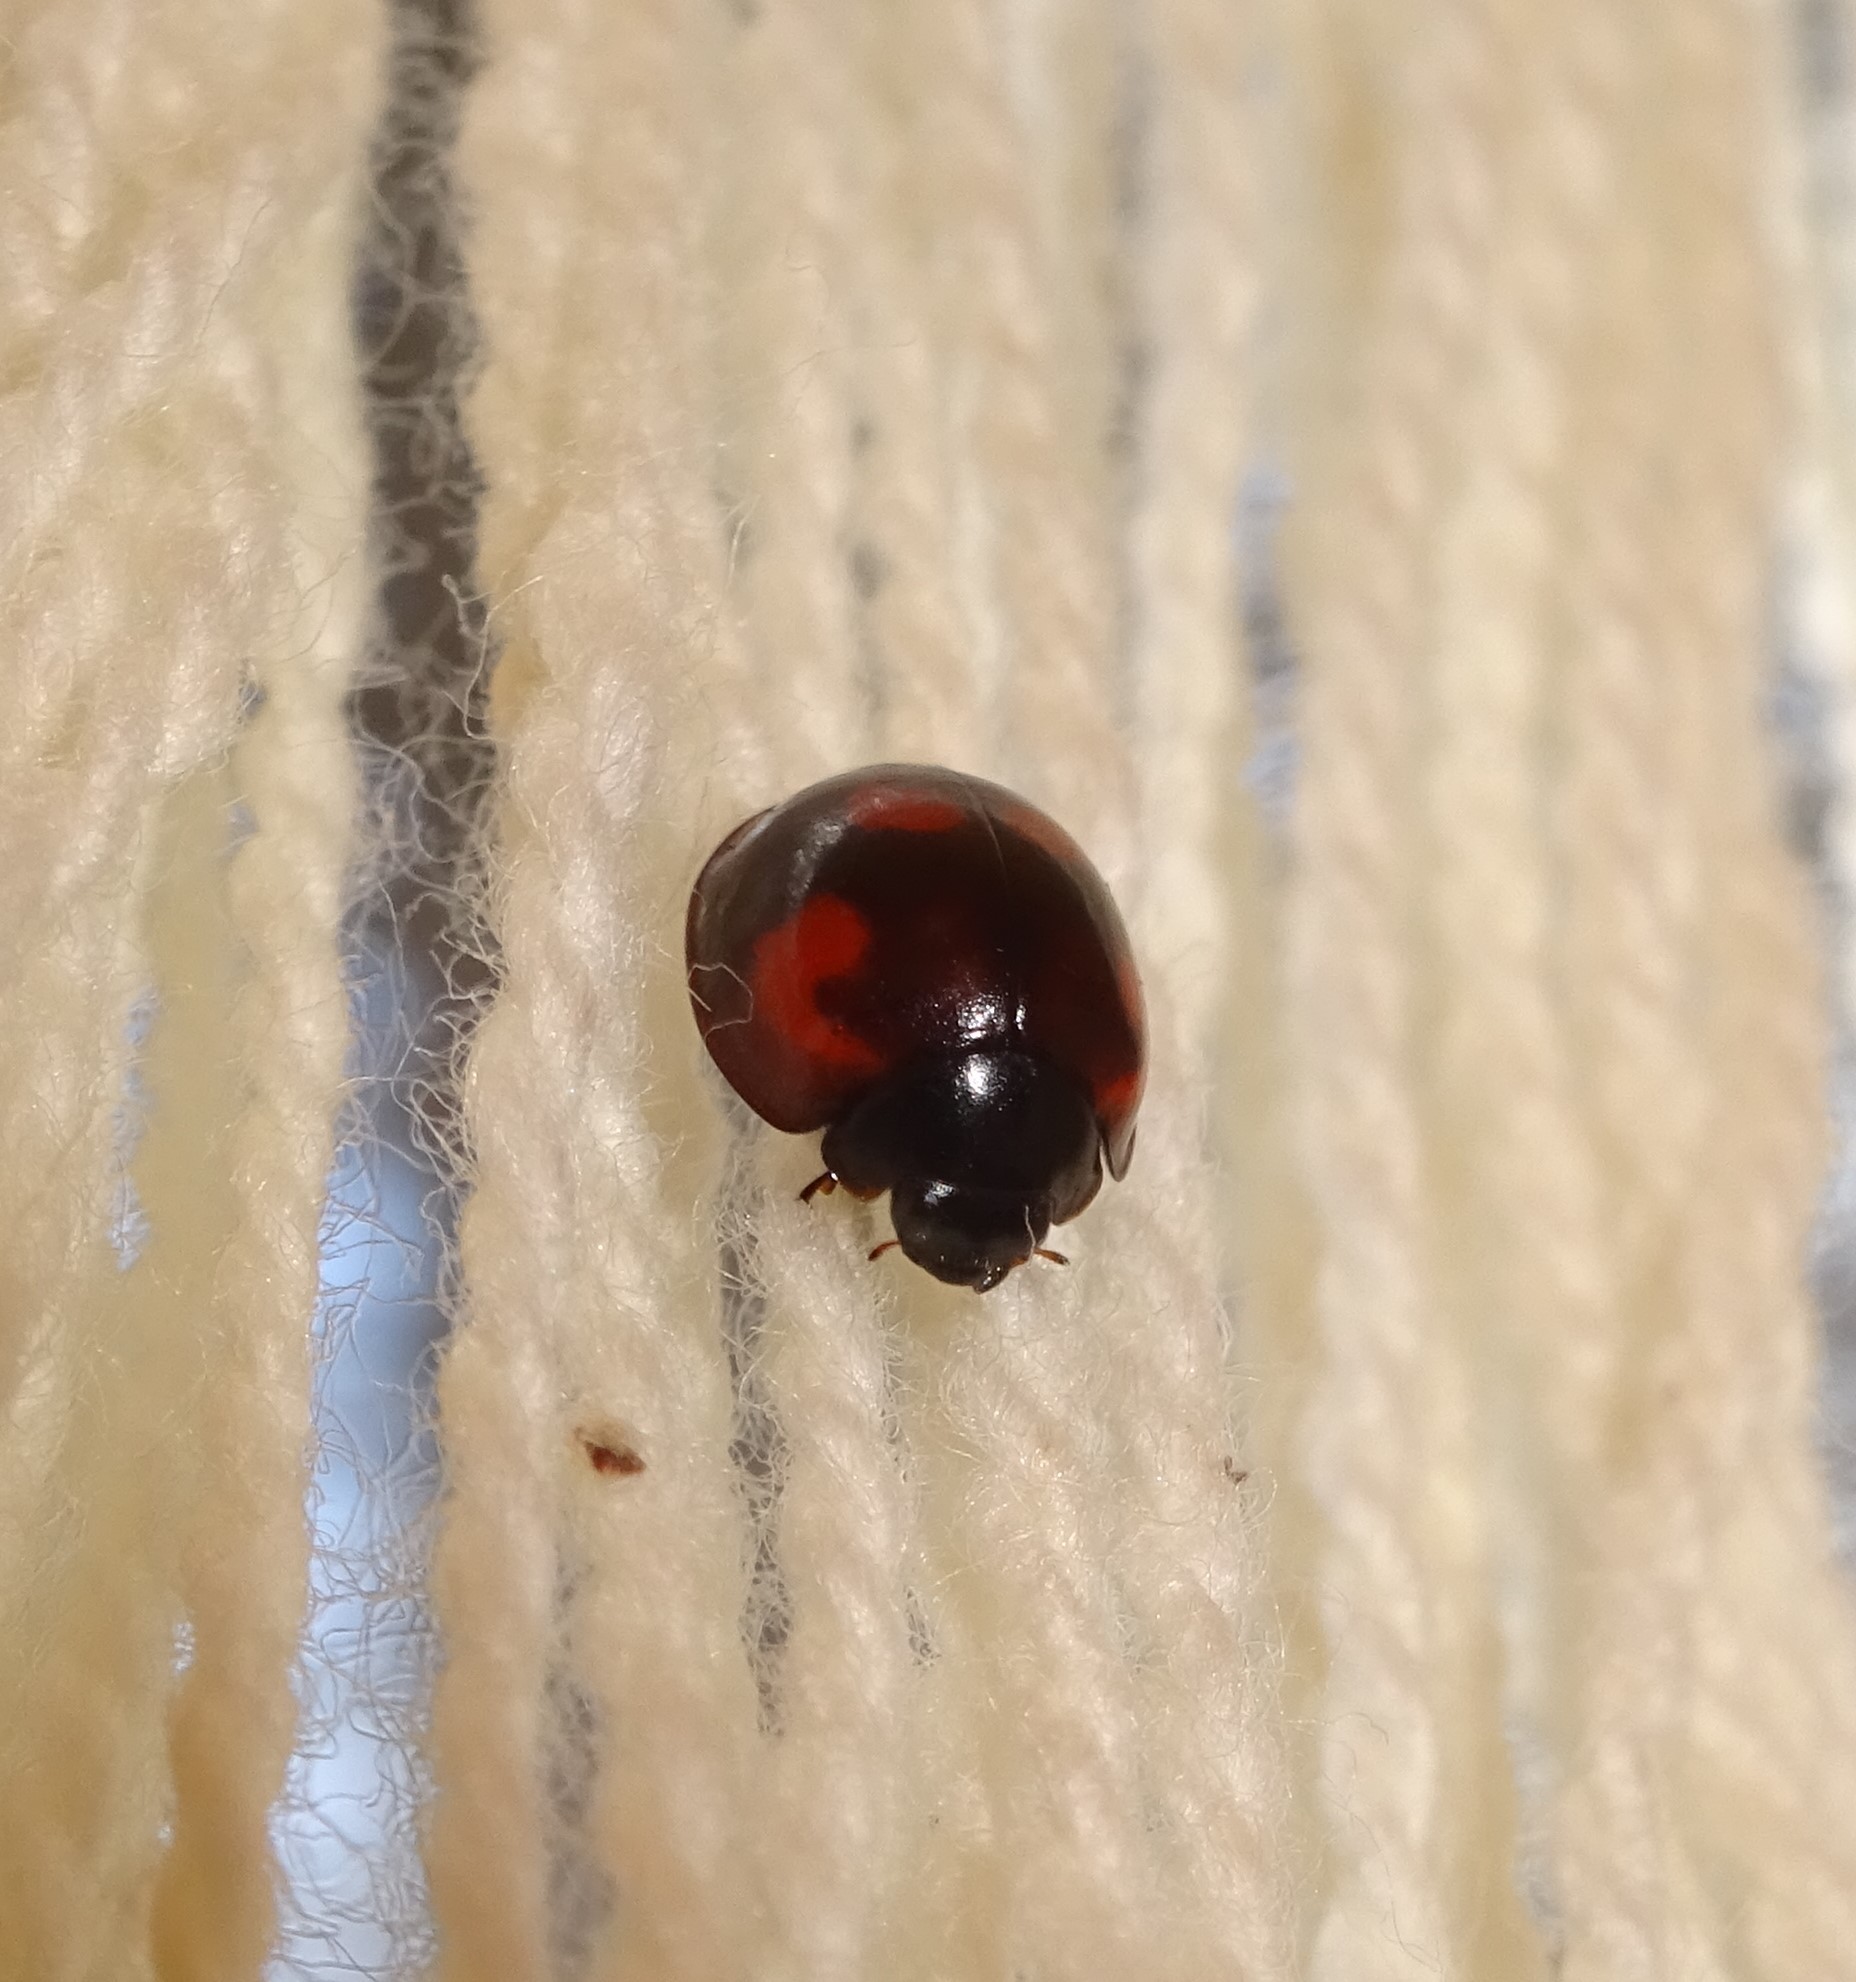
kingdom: Animalia
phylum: Arthropoda
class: Insecta
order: Coleoptera
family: Coccinellidae
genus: Brumus
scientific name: Brumus quadripustulatus
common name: Ladybird beetle
